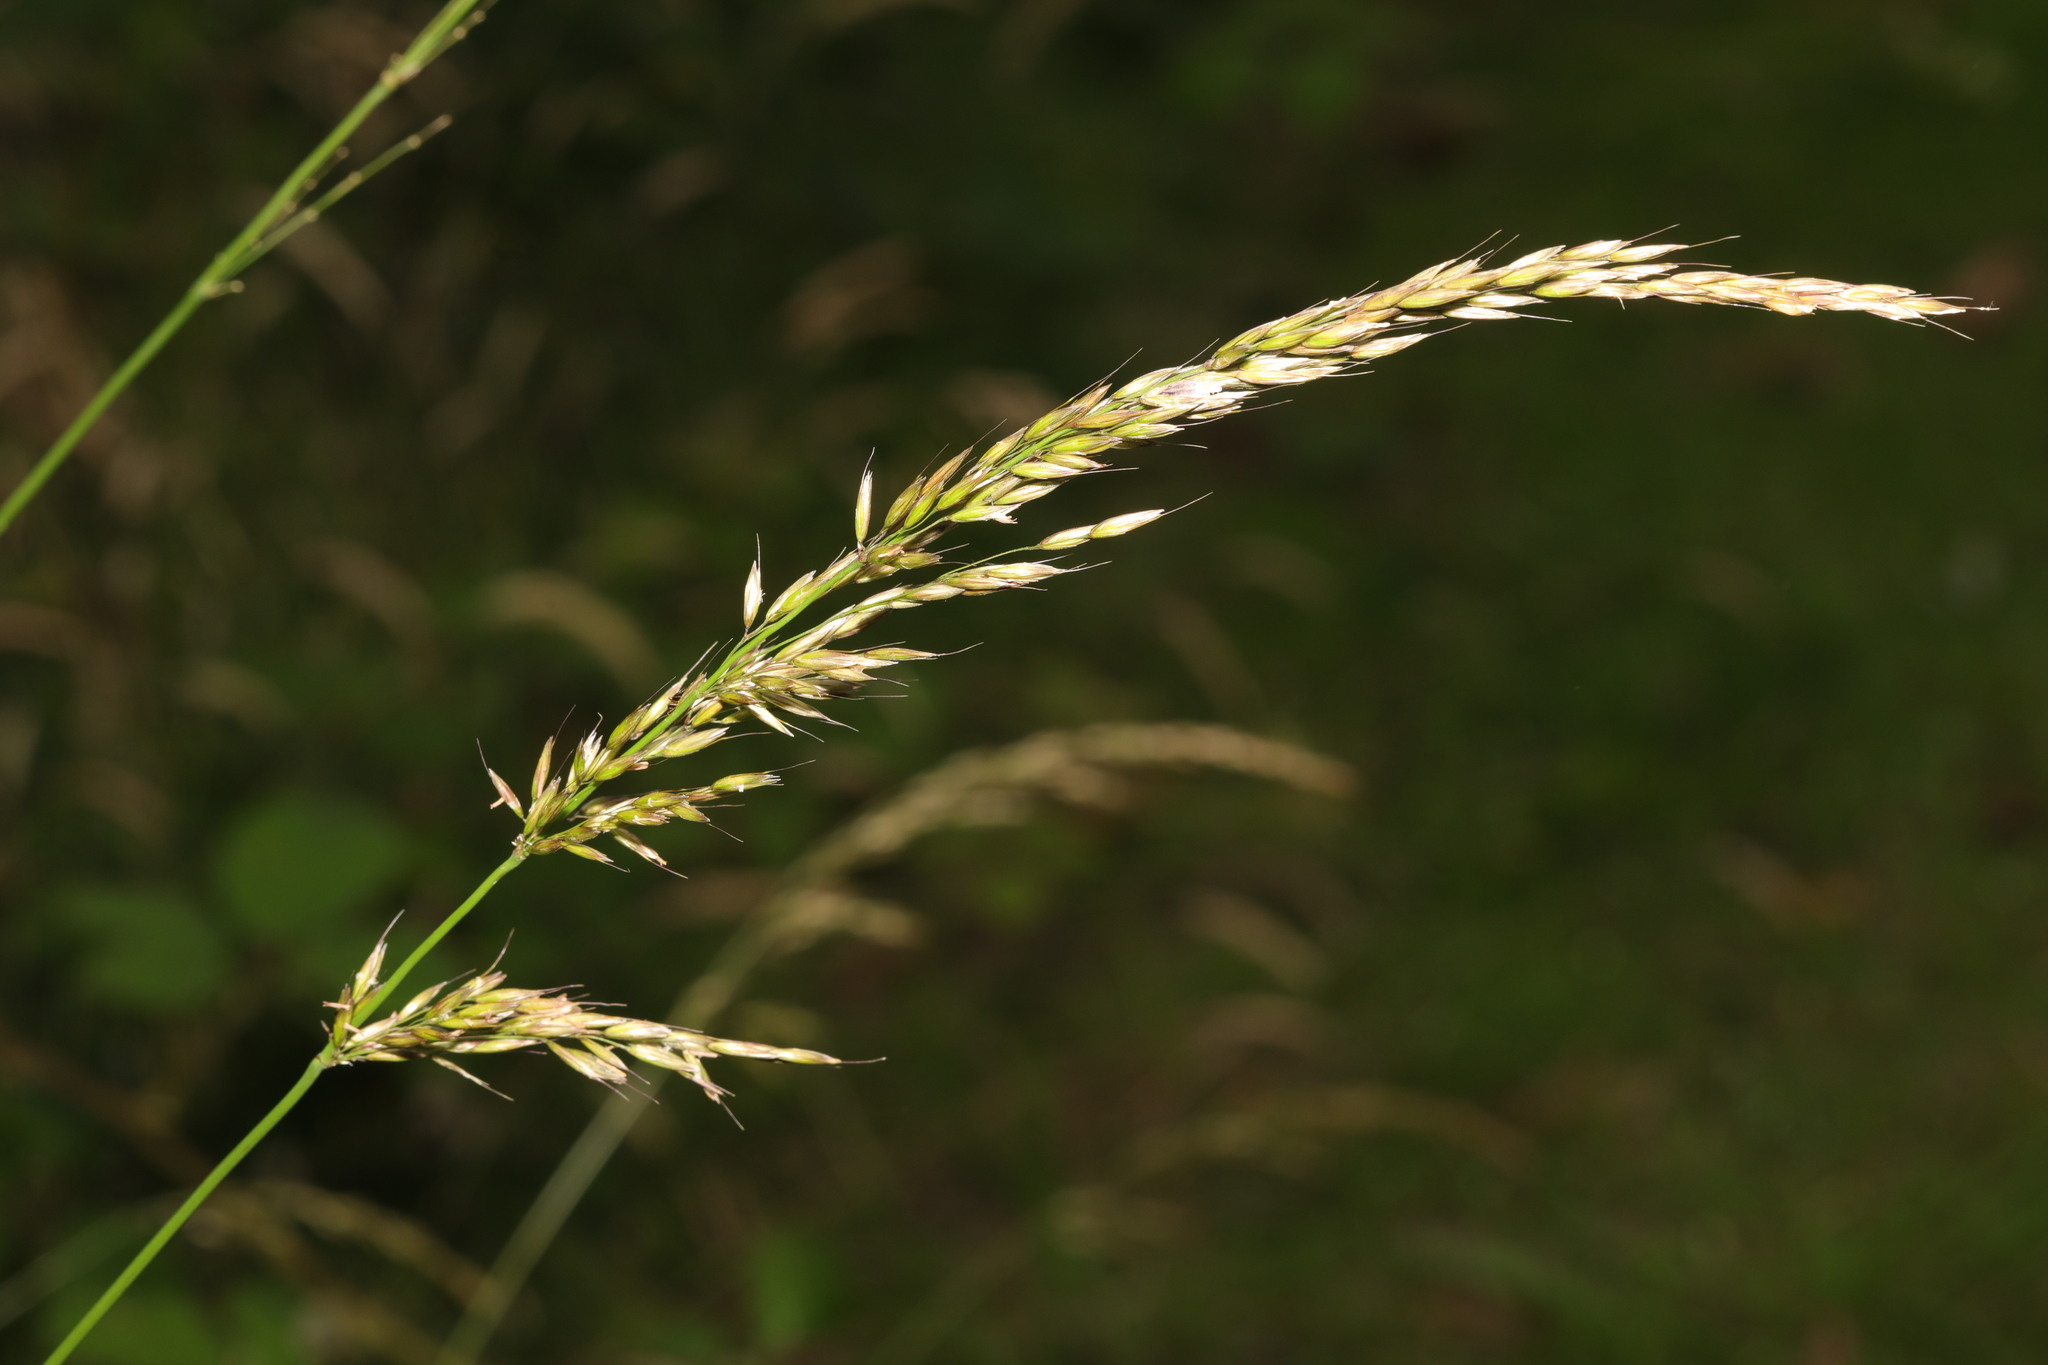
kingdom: Plantae
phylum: Tracheophyta
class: Liliopsida
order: Poales
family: Poaceae
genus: Arrhenatherum
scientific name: Arrhenatherum elatius
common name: Tall oatgrass
